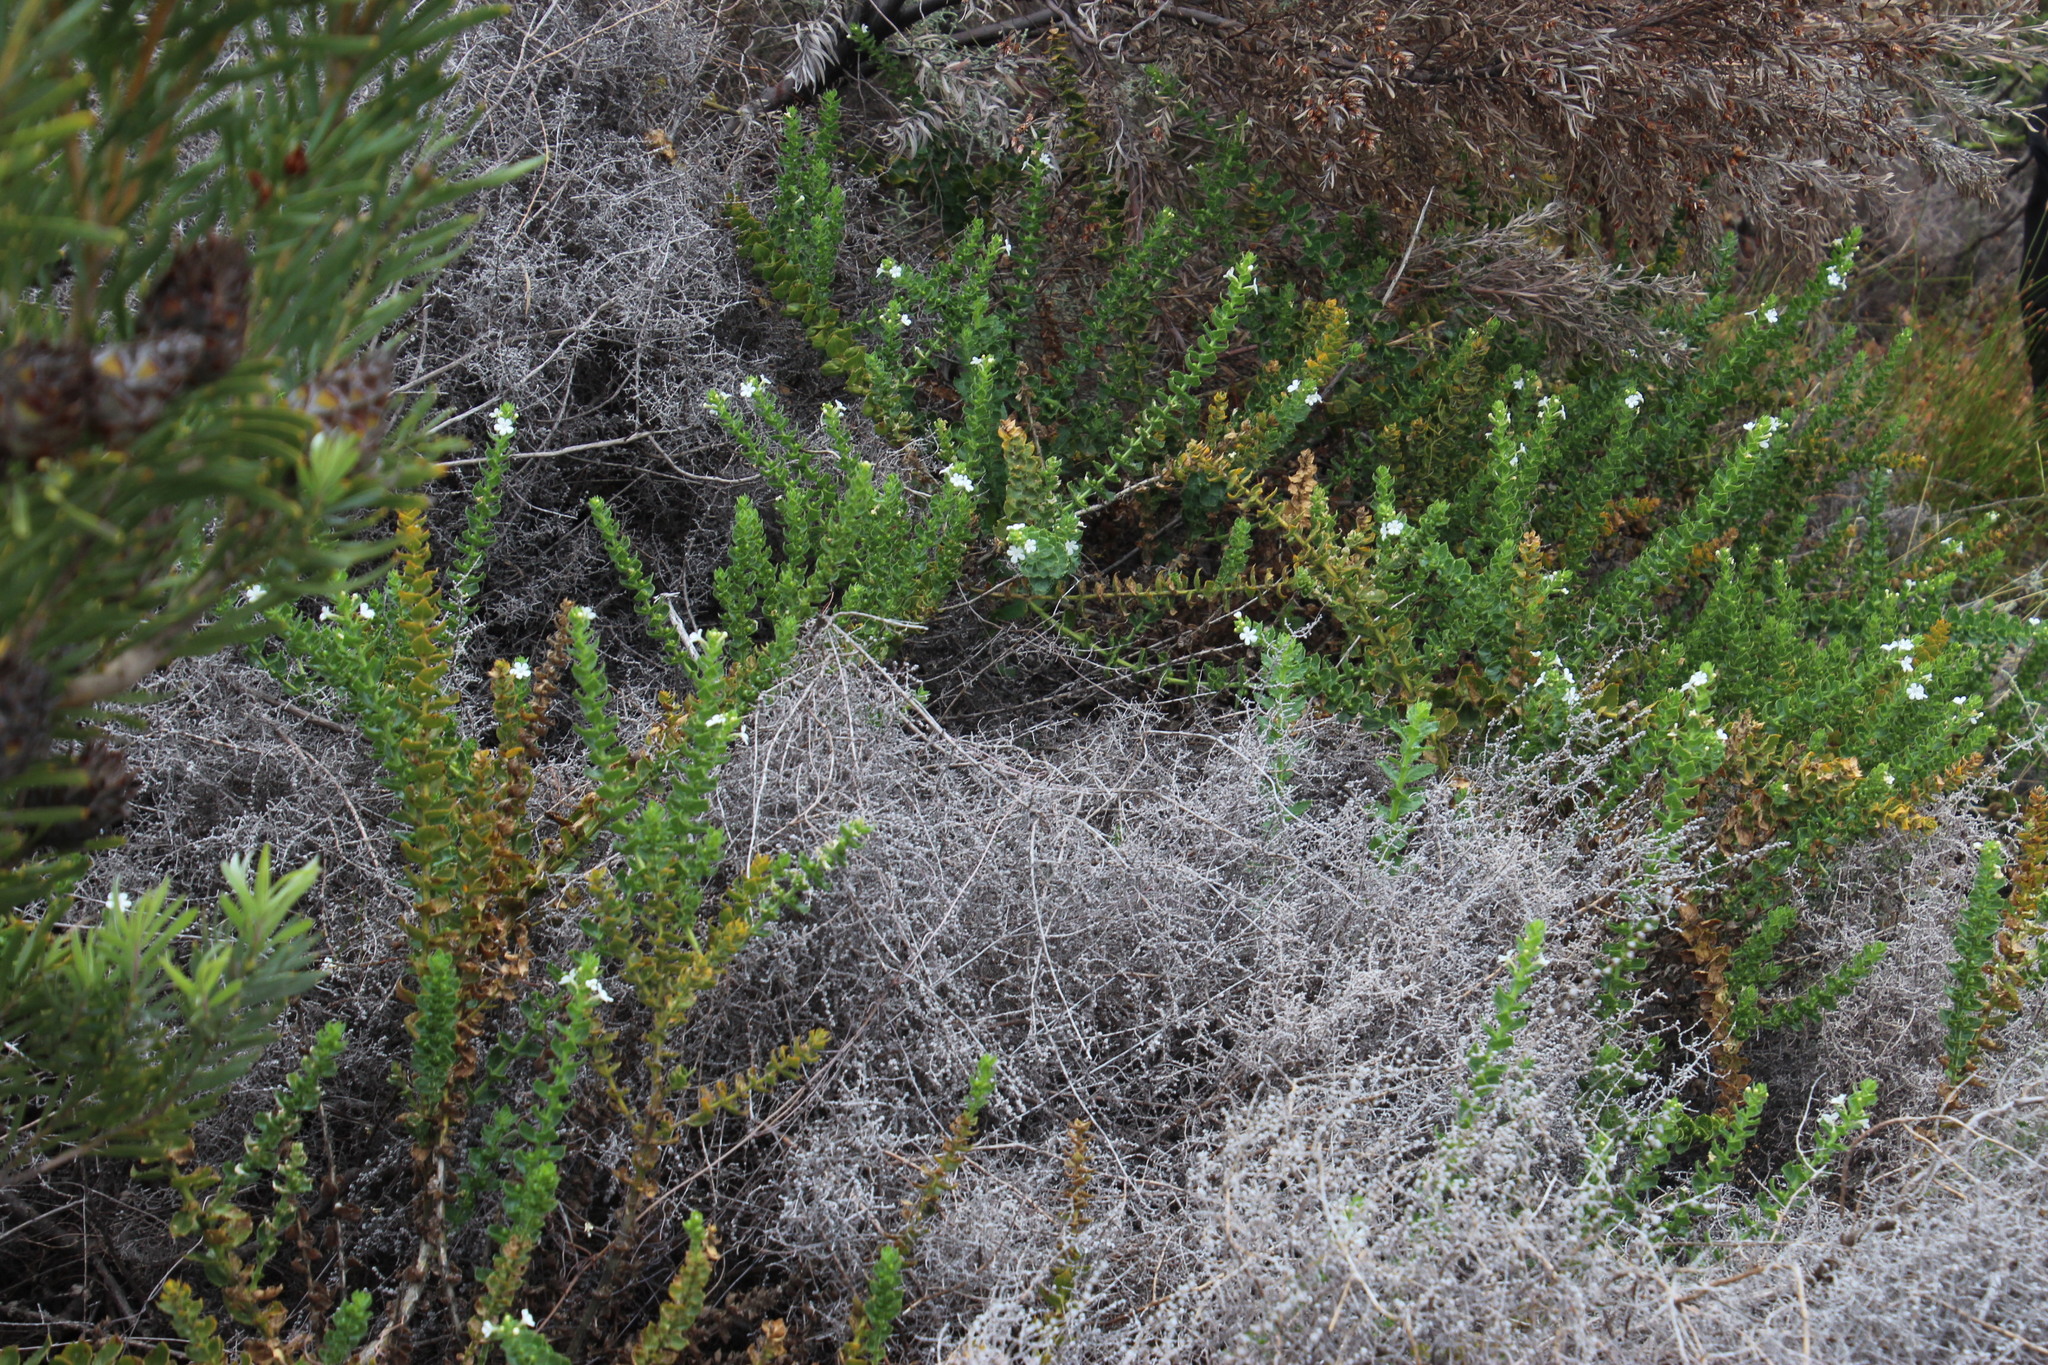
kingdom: Plantae
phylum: Tracheophyta
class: Magnoliopsida
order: Lamiales
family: Scrophulariaceae
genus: Oftia
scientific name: Oftia africana
